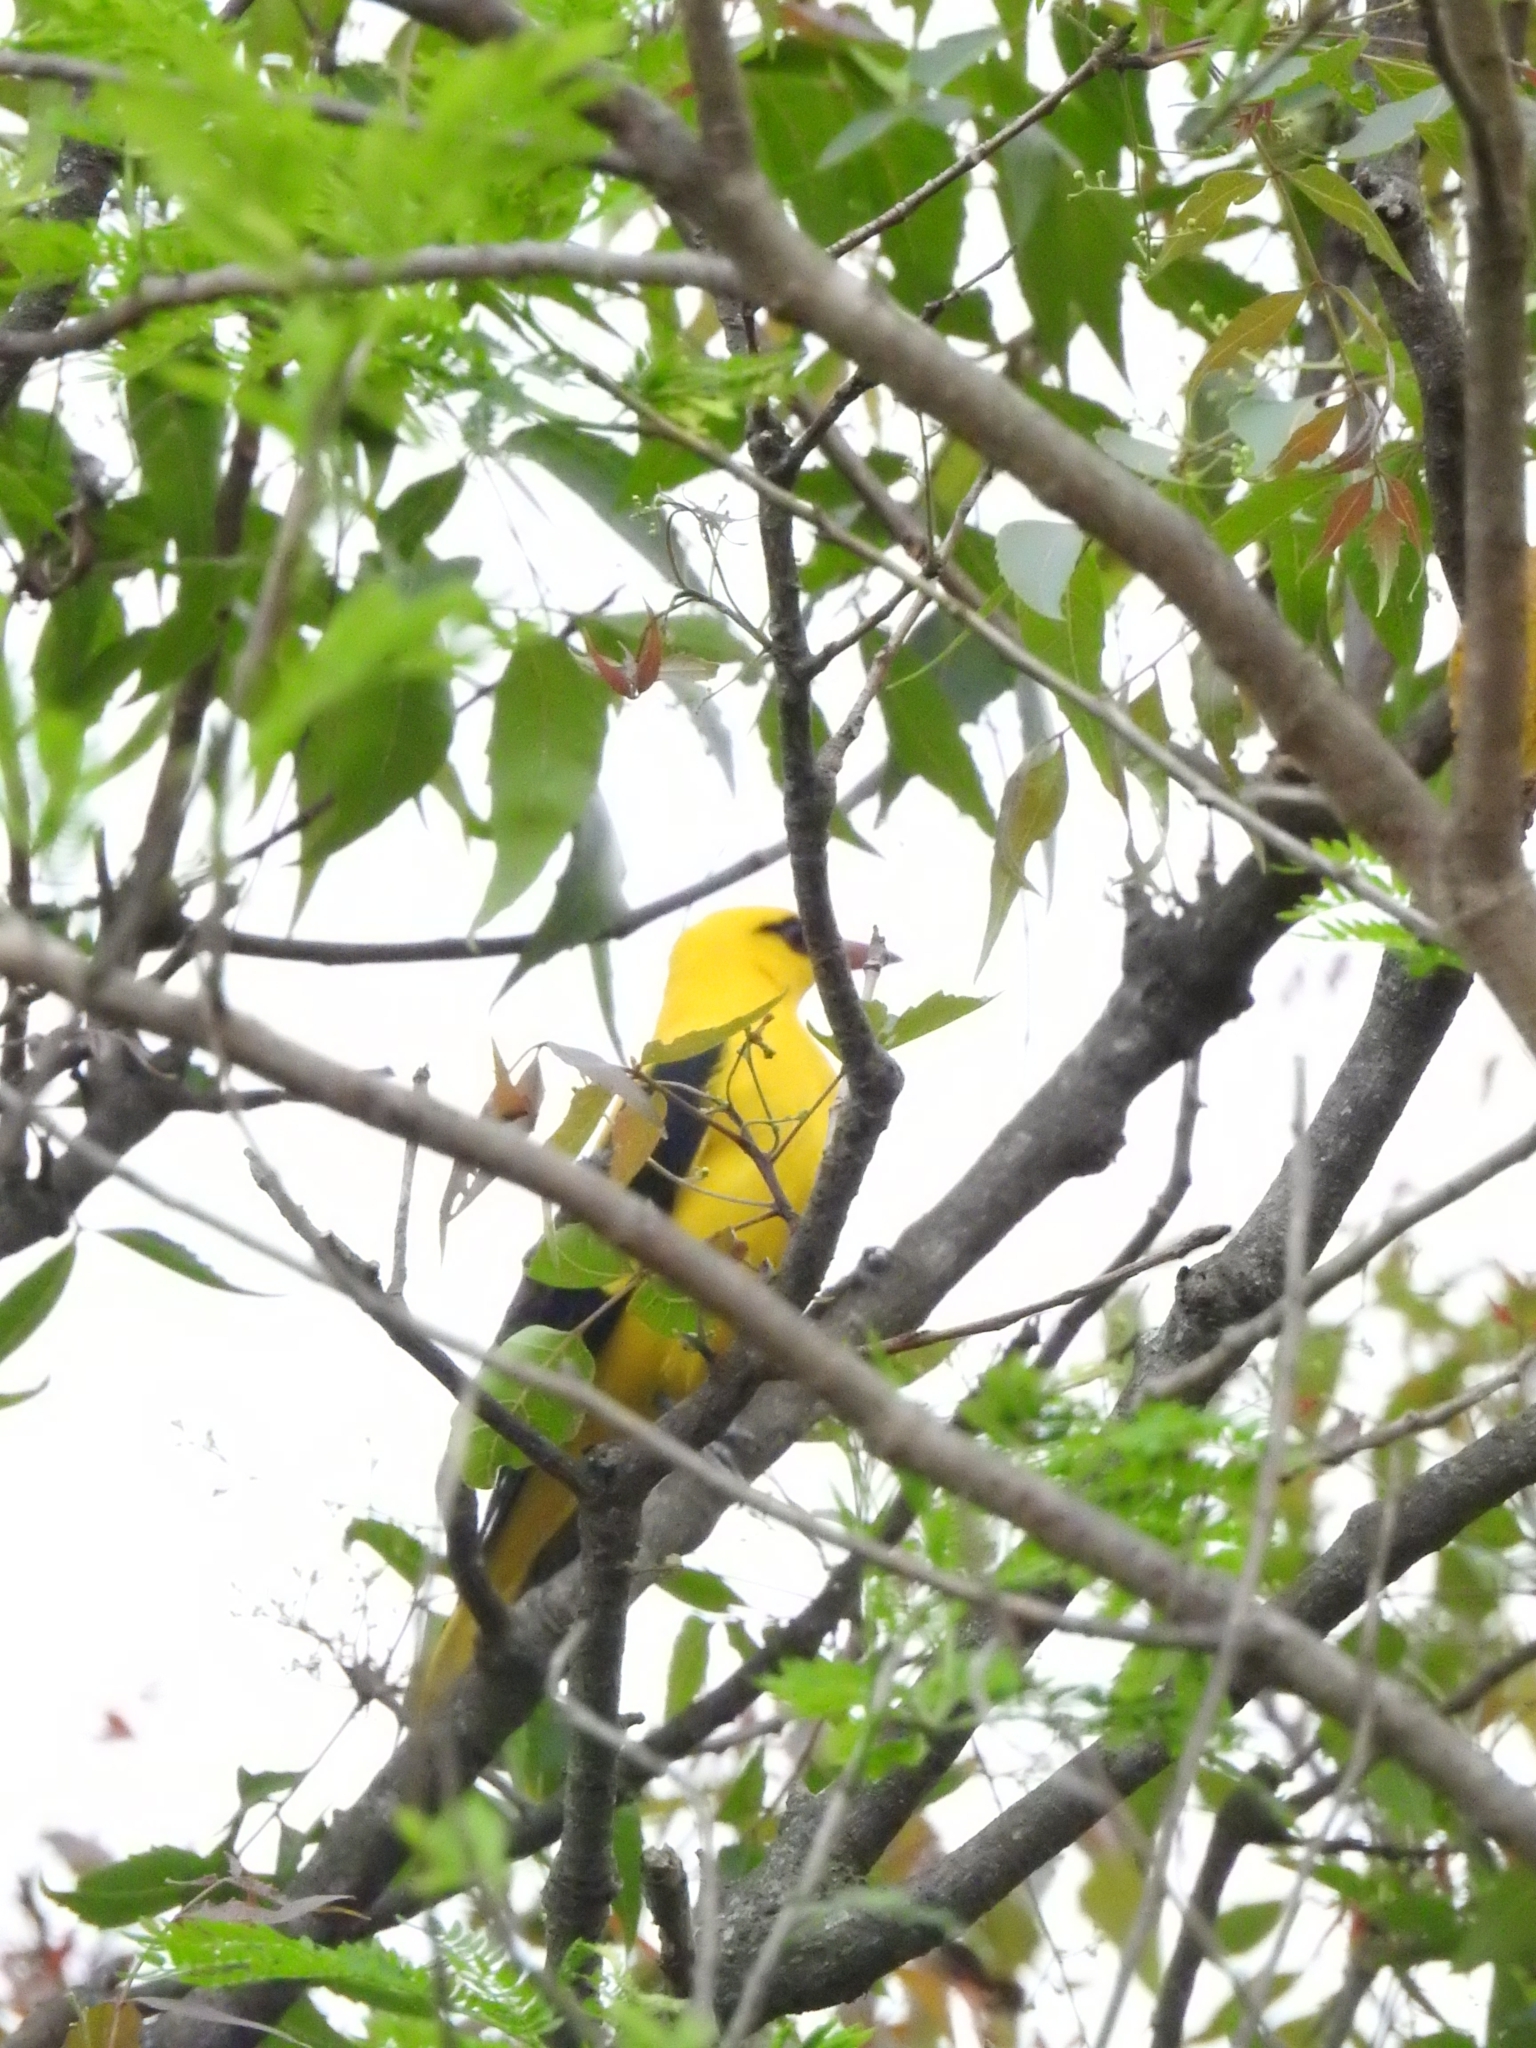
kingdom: Animalia
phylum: Chordata
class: Aves
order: Passeriformes
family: Oriolidae
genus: Oriolus
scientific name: Oriolus kundoo
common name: Indian golden oriole
